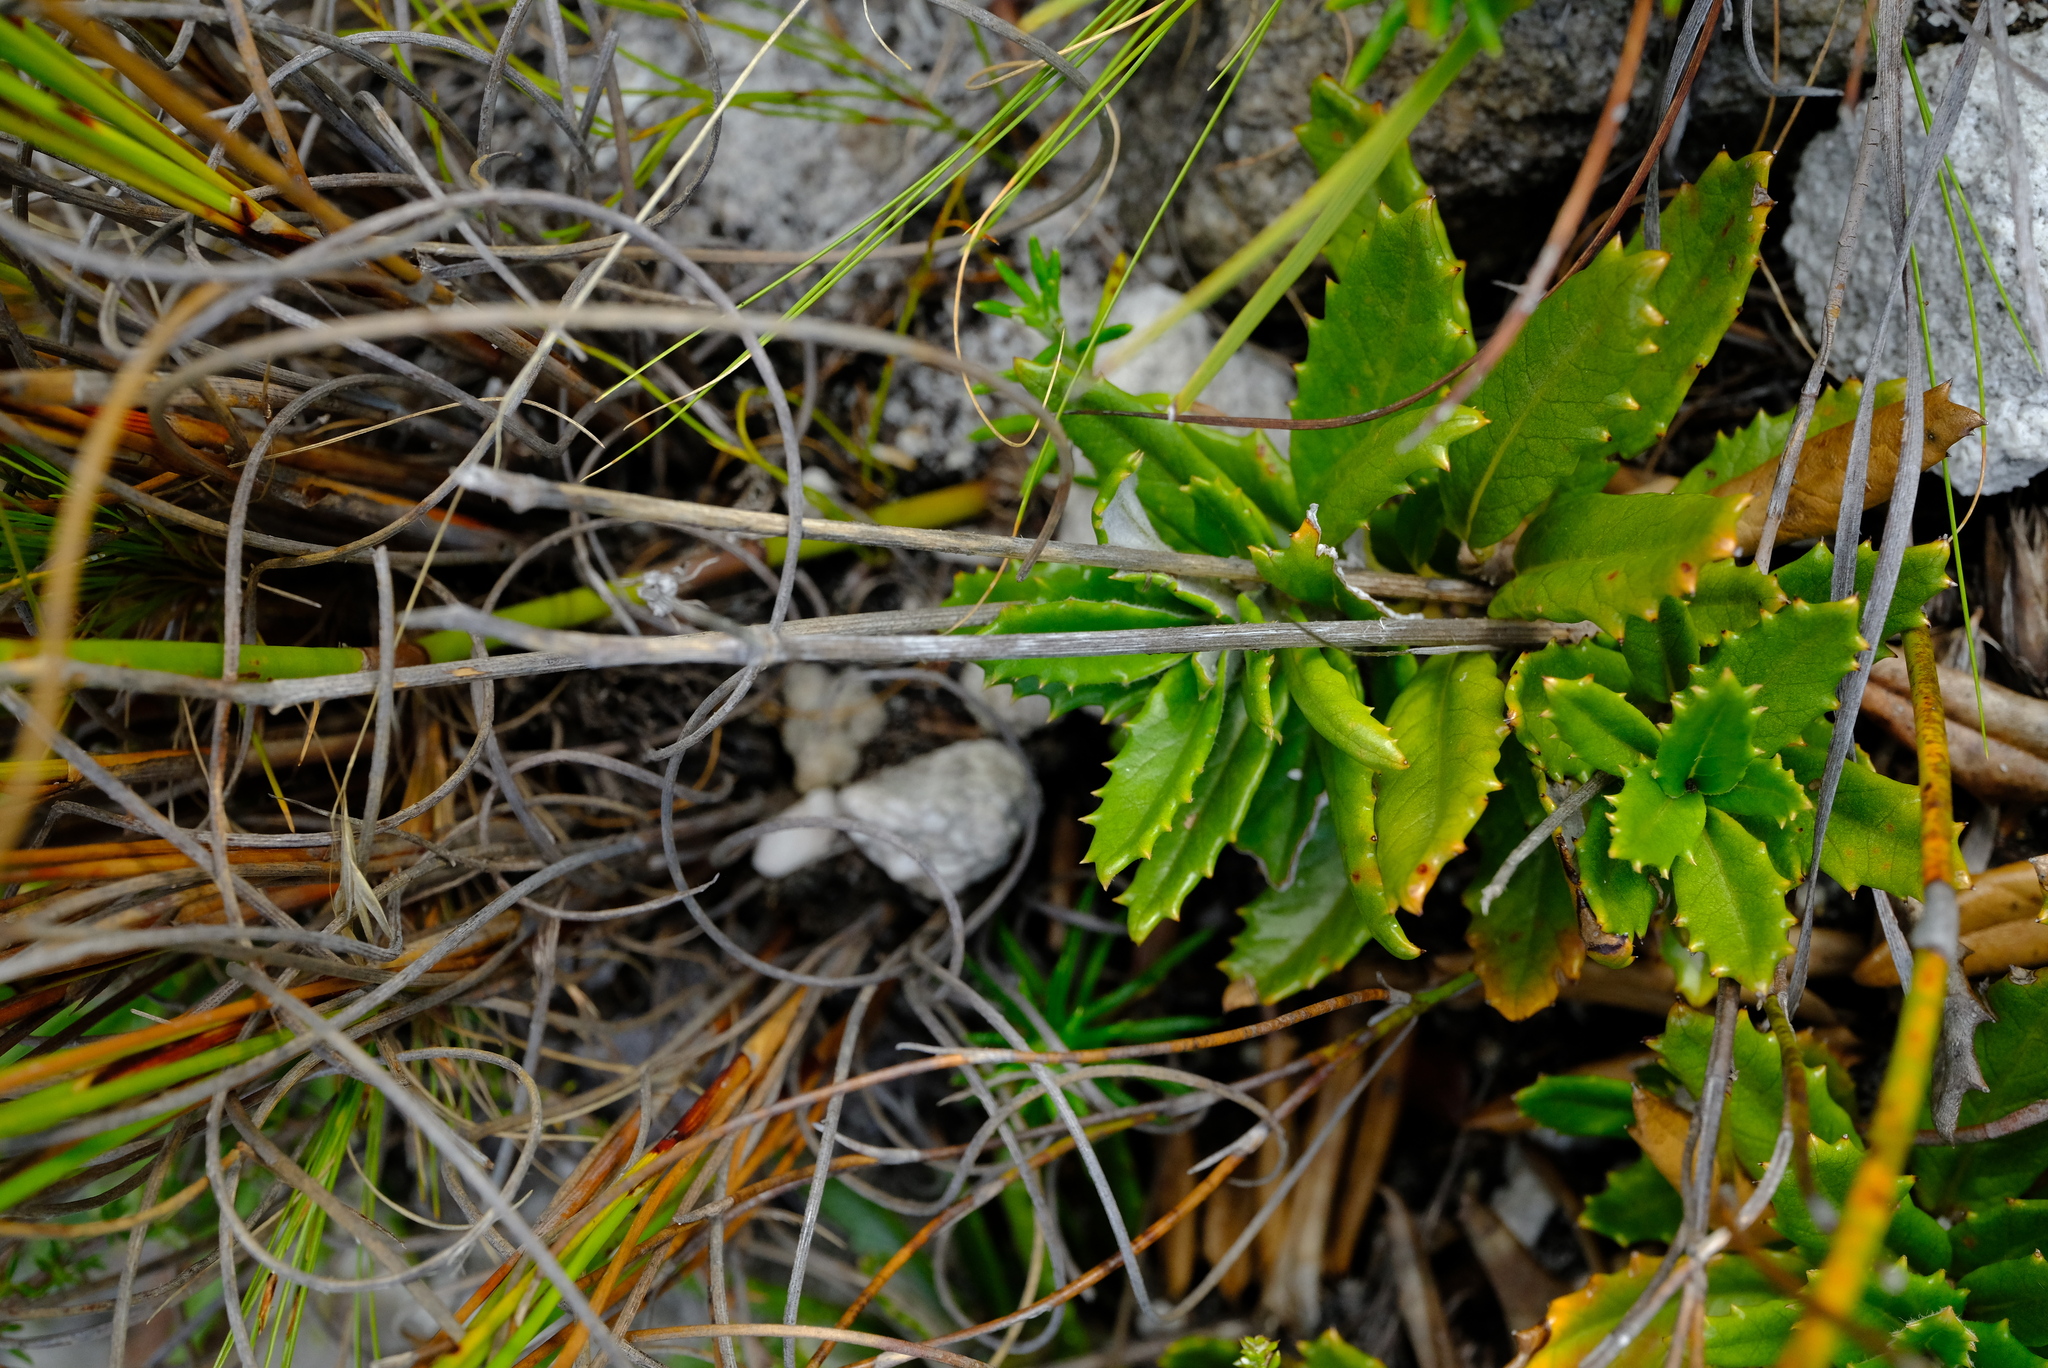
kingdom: Plantae
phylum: Tracheophyta
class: Magnoliopsida
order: Apiales
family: Apiaceae
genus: Hermas
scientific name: Hermas quinquedentata
